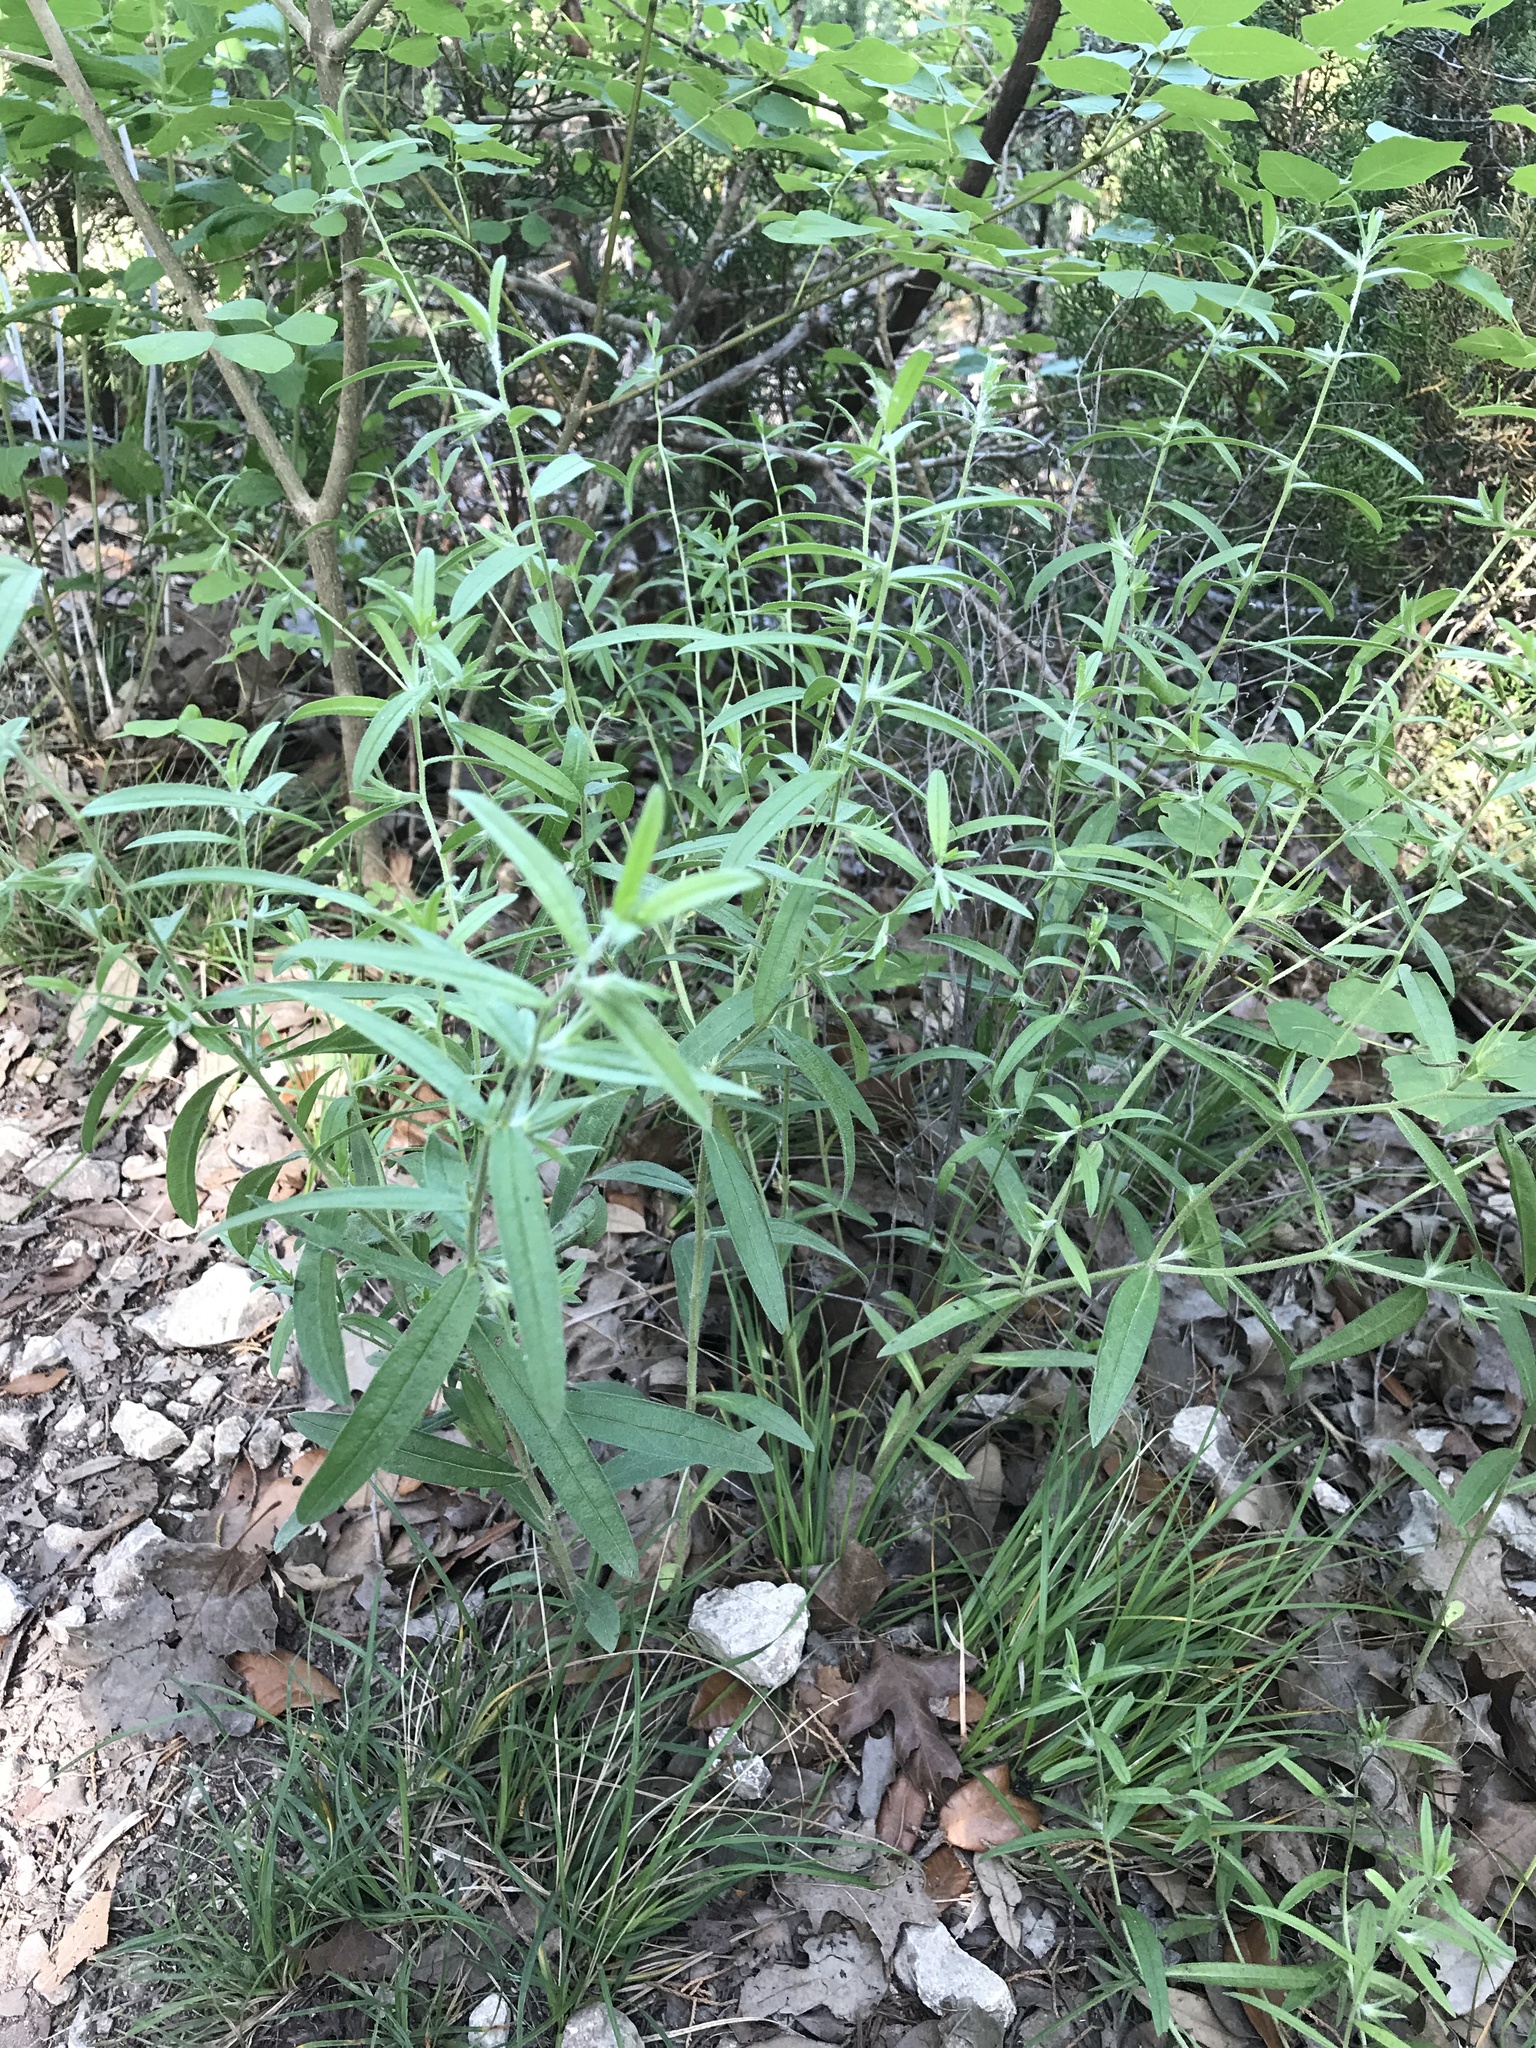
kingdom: Plantae
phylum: Tracheophyta
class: Magnoliopsida
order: Boraginales
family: Boraginaceae
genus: Lithospermum
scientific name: Lithospermum incisum
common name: Fringed gromwell
